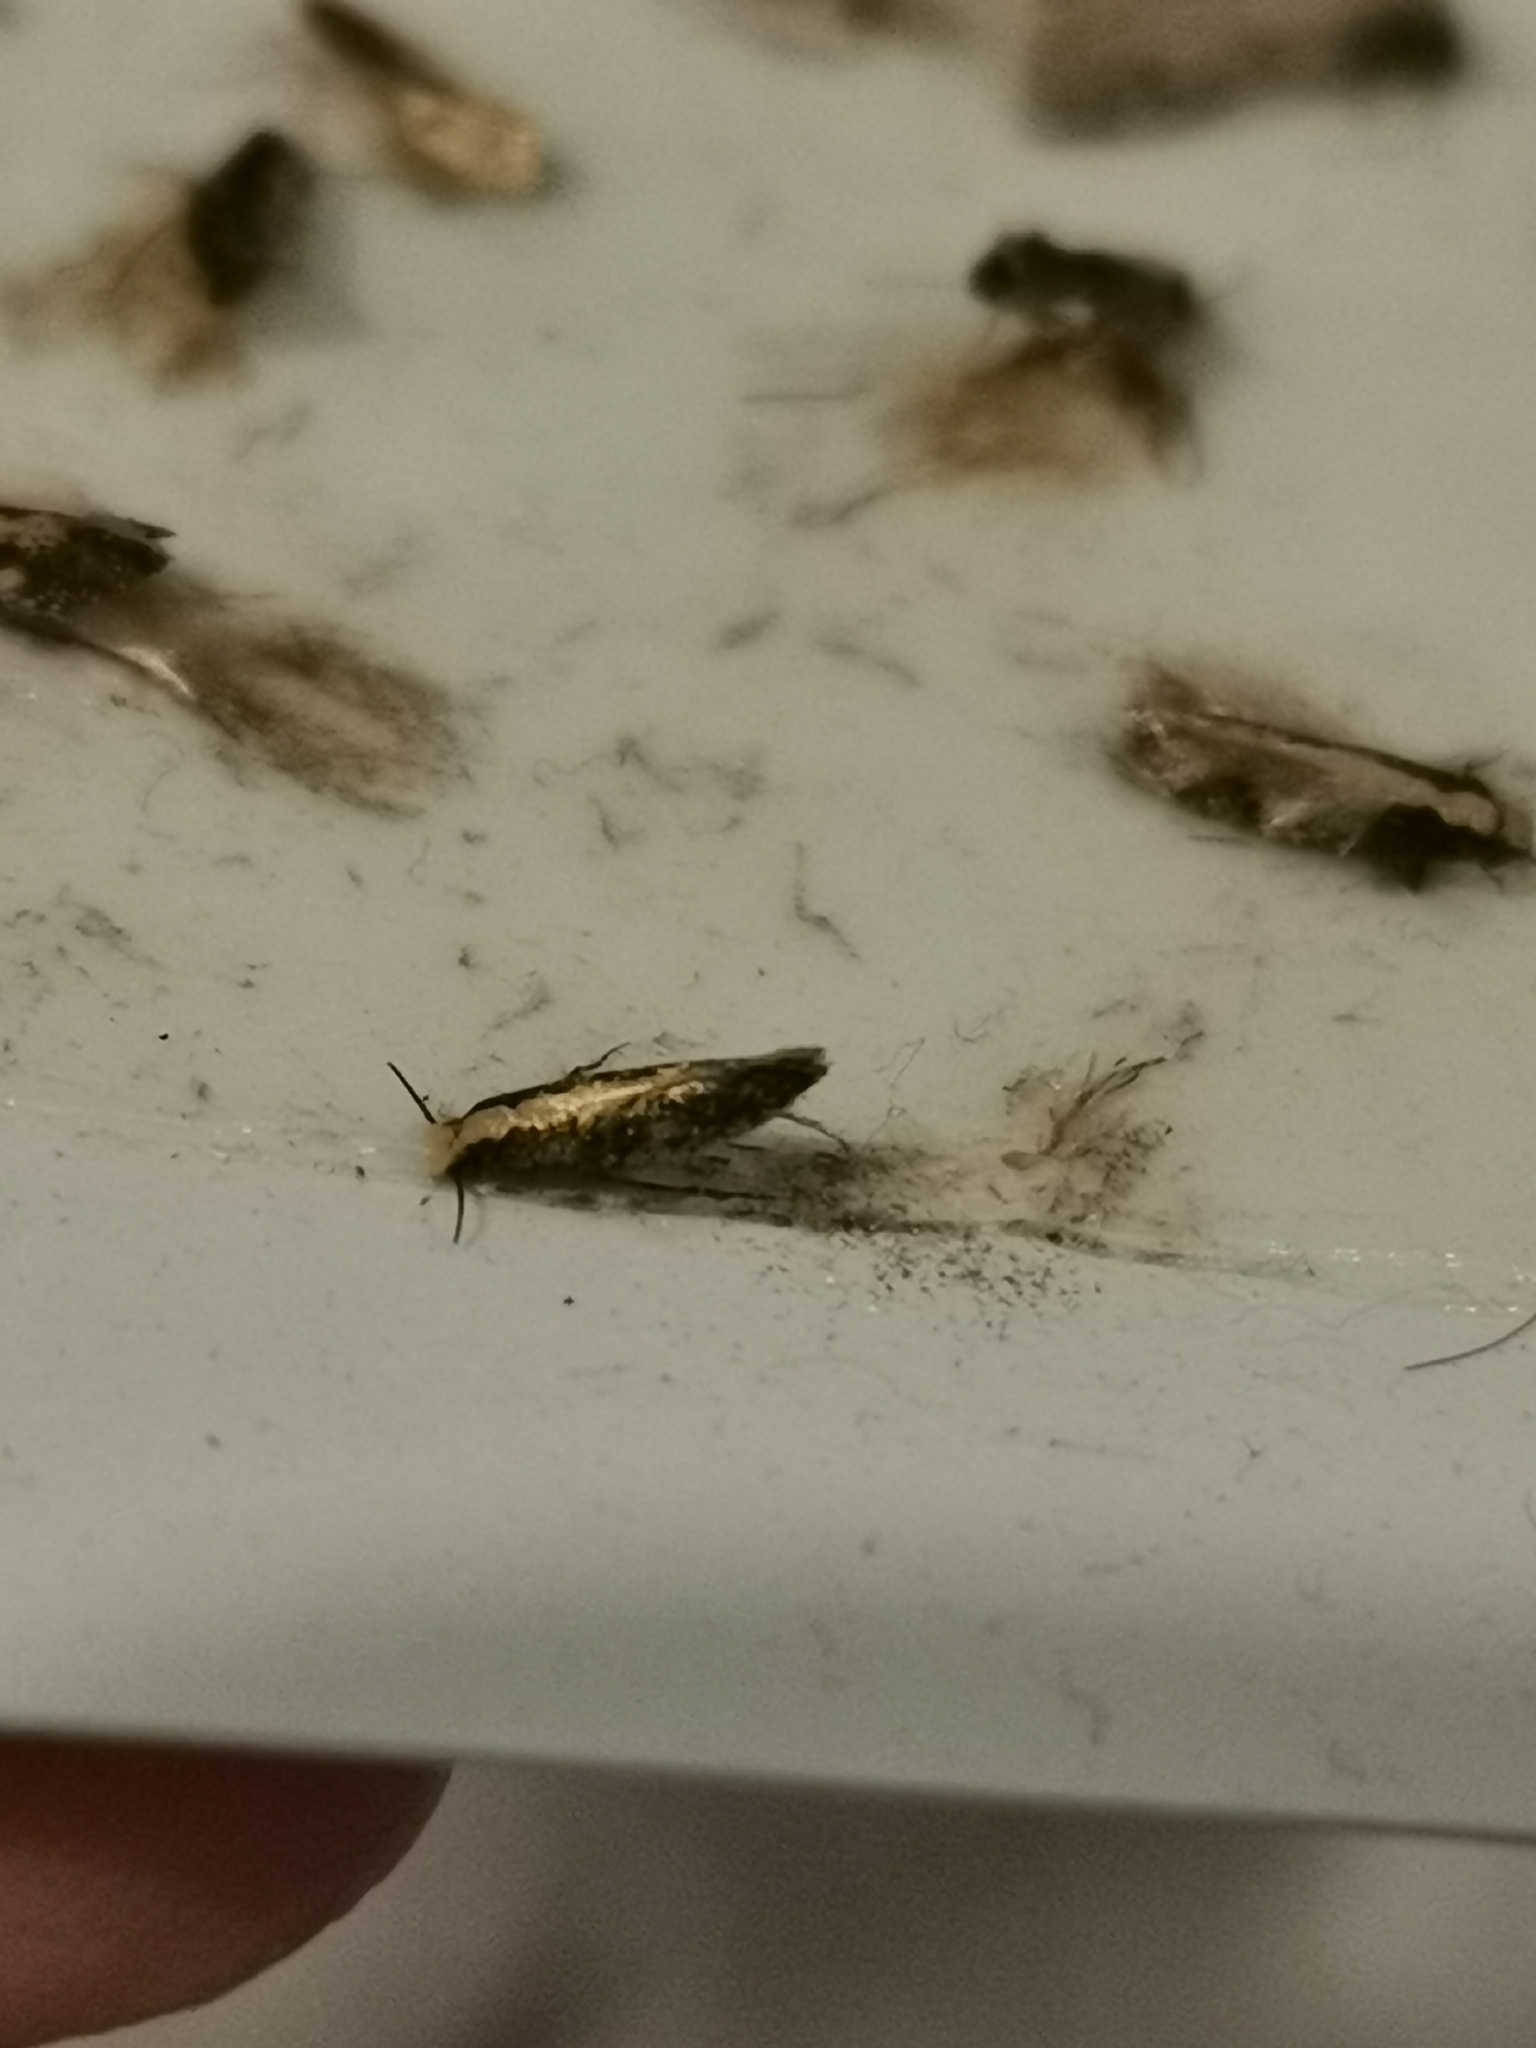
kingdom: Animalia
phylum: Arthropoda
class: Insecta
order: Lepidoptera
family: Tineidae
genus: Monopis
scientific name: Monopis ethelella
